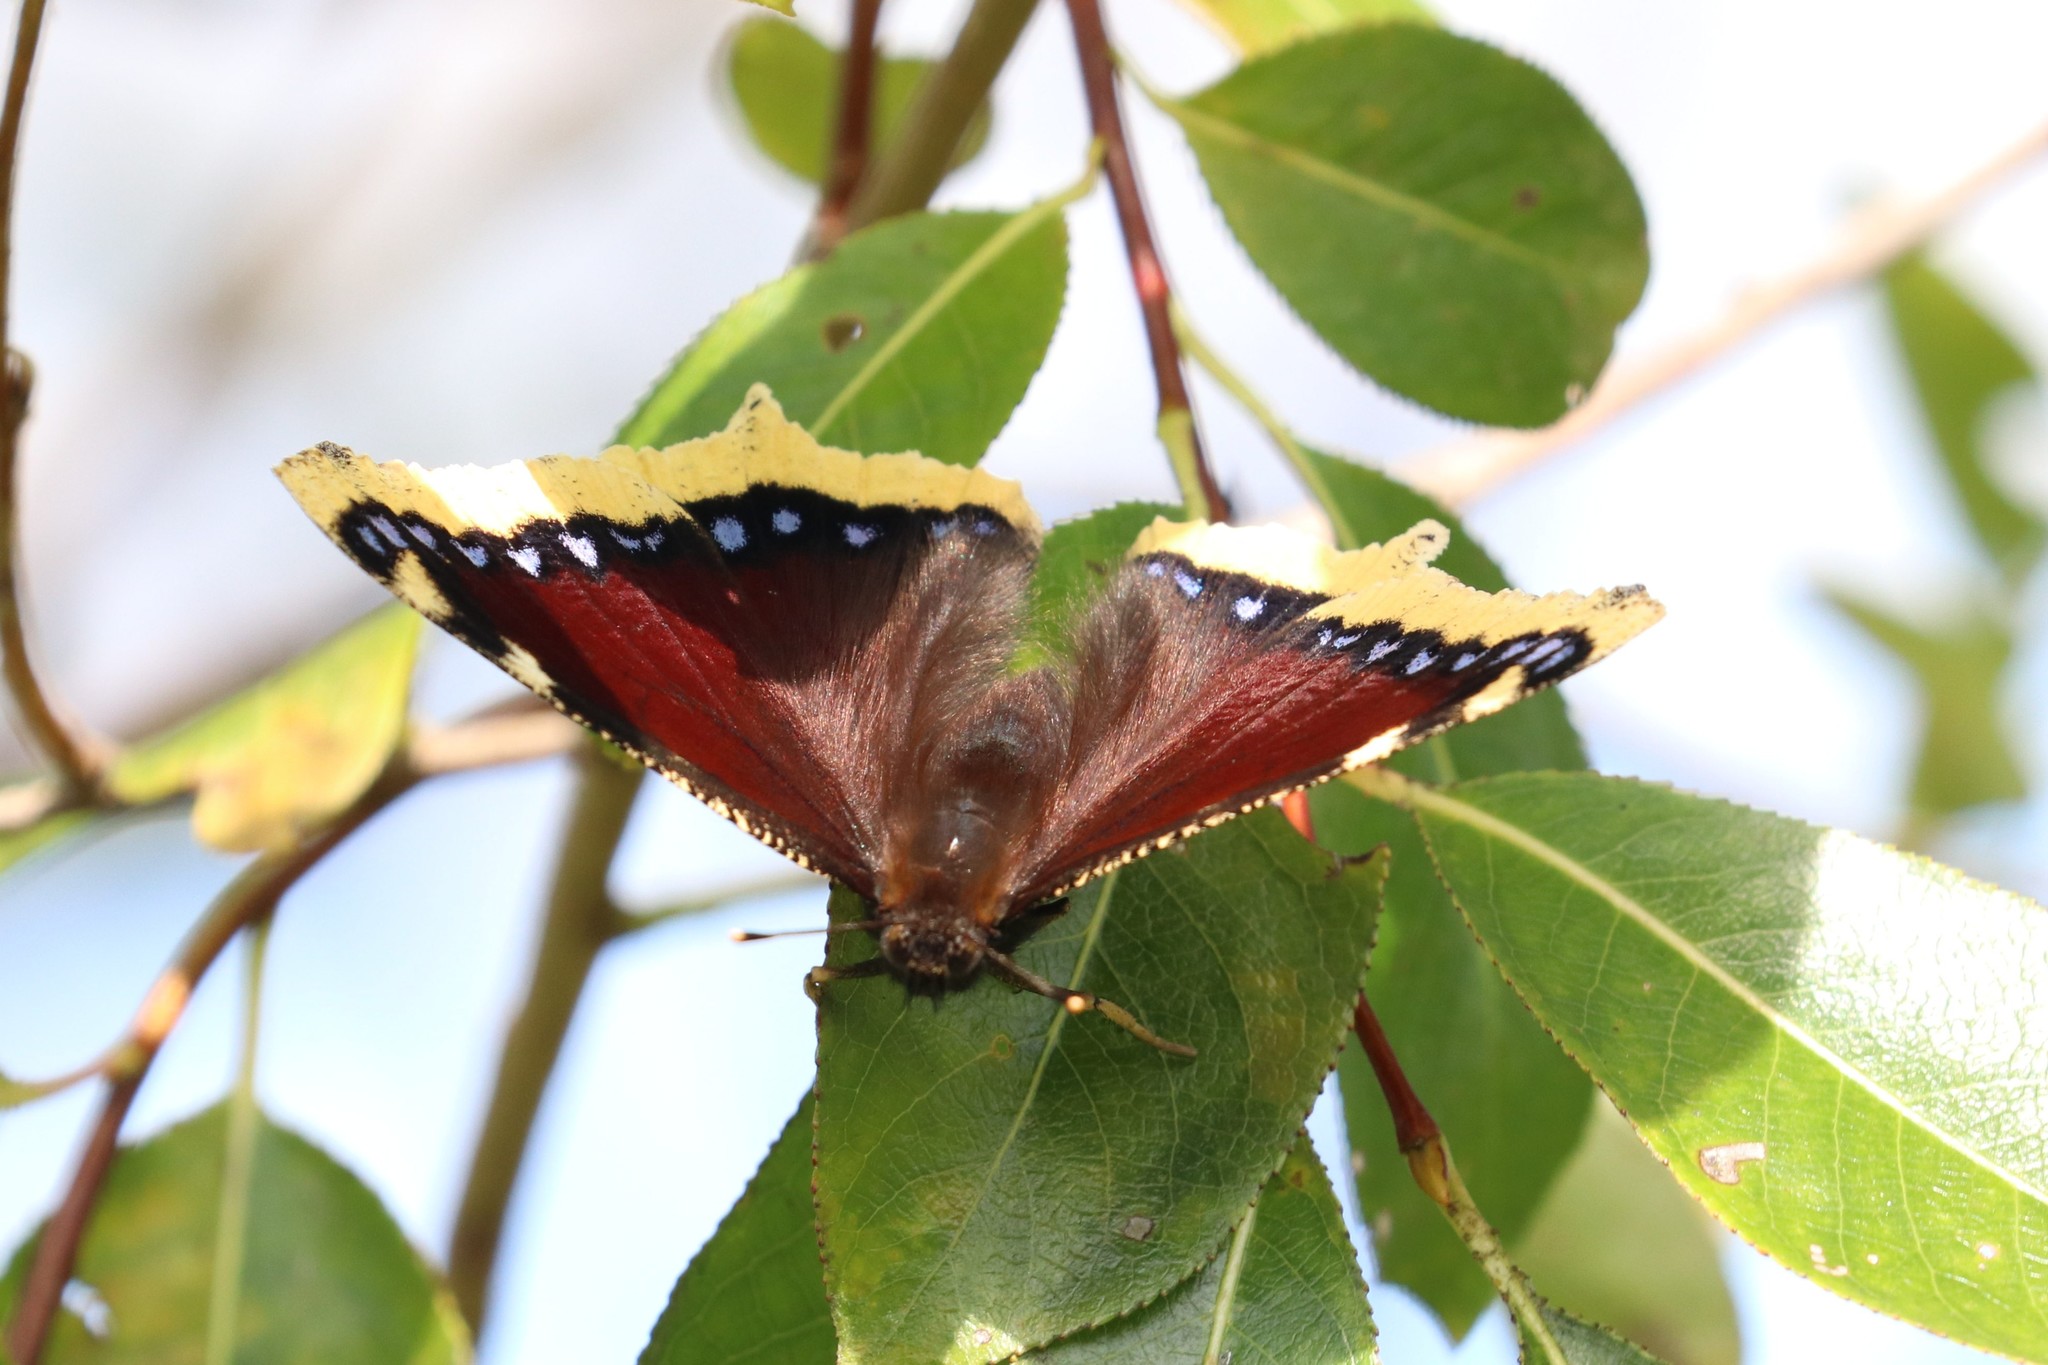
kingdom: Animalia
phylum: Arthropoda
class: Insecta
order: Lepidoptera
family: Nymphalidae
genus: Nymphalis
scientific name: Nymphalis antiopa
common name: Camberwell beauty
